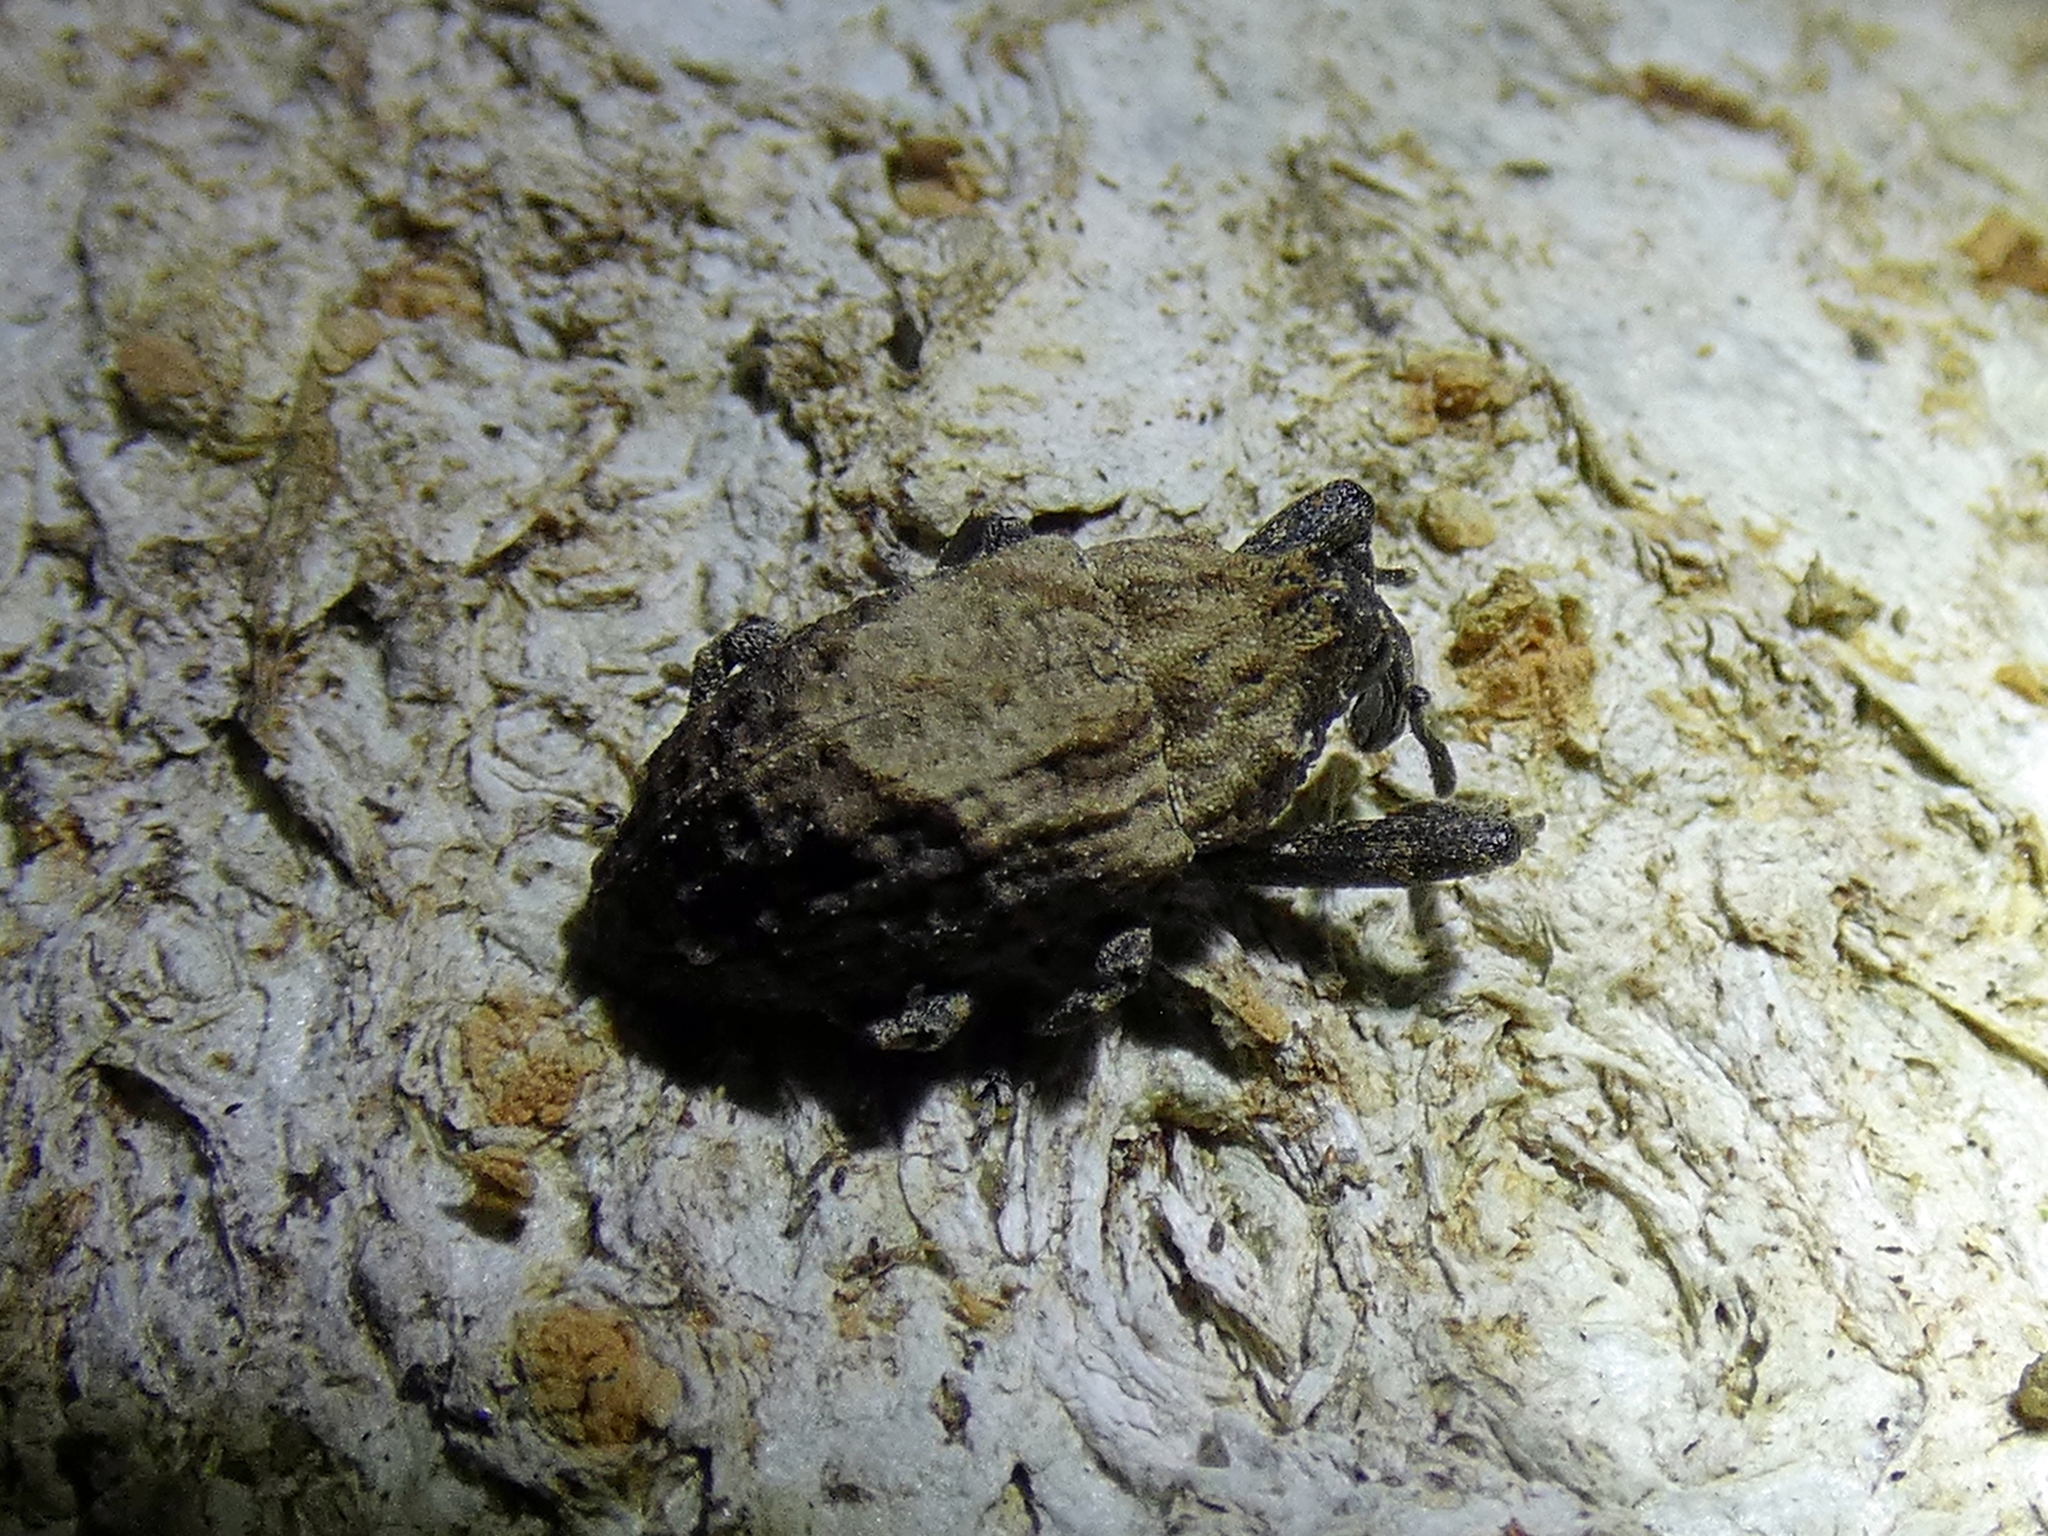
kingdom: Animalia
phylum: Arthropoda
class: Insecta
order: Coleoptera
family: Curculionidae
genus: Blepiarda
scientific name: Blepiarda undulata
